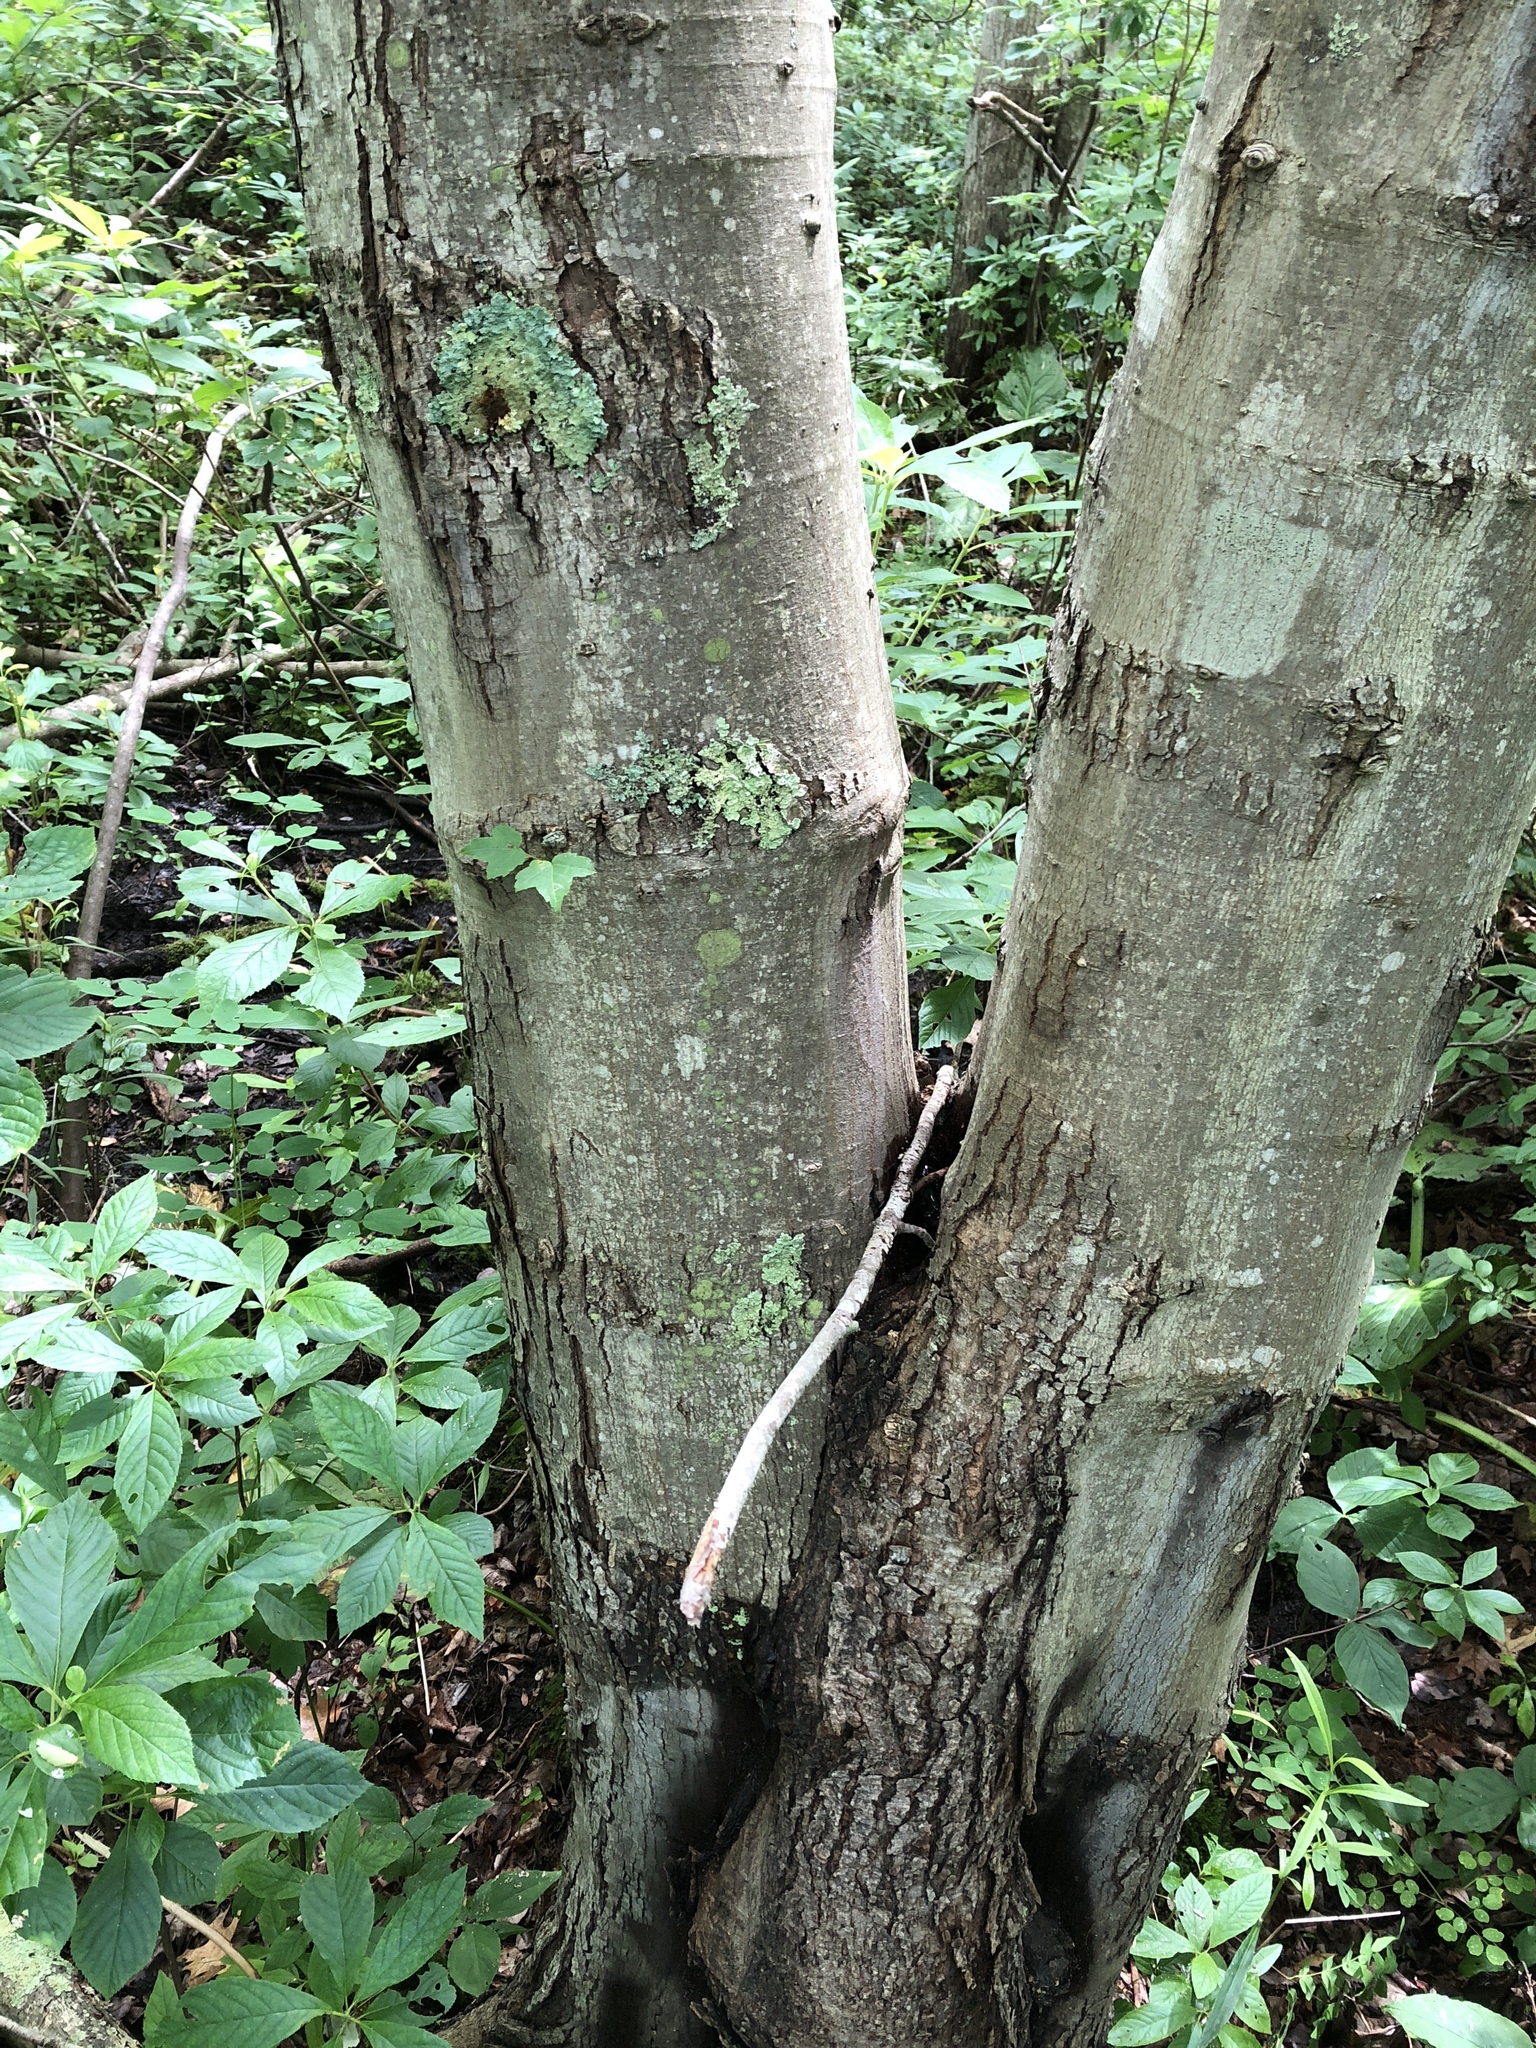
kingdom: Plantae
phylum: Tracheophyta
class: Magnoliopsida
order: Sapindales
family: Sapindaceae
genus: Acer
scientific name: Acer rubrum
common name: Red maple
